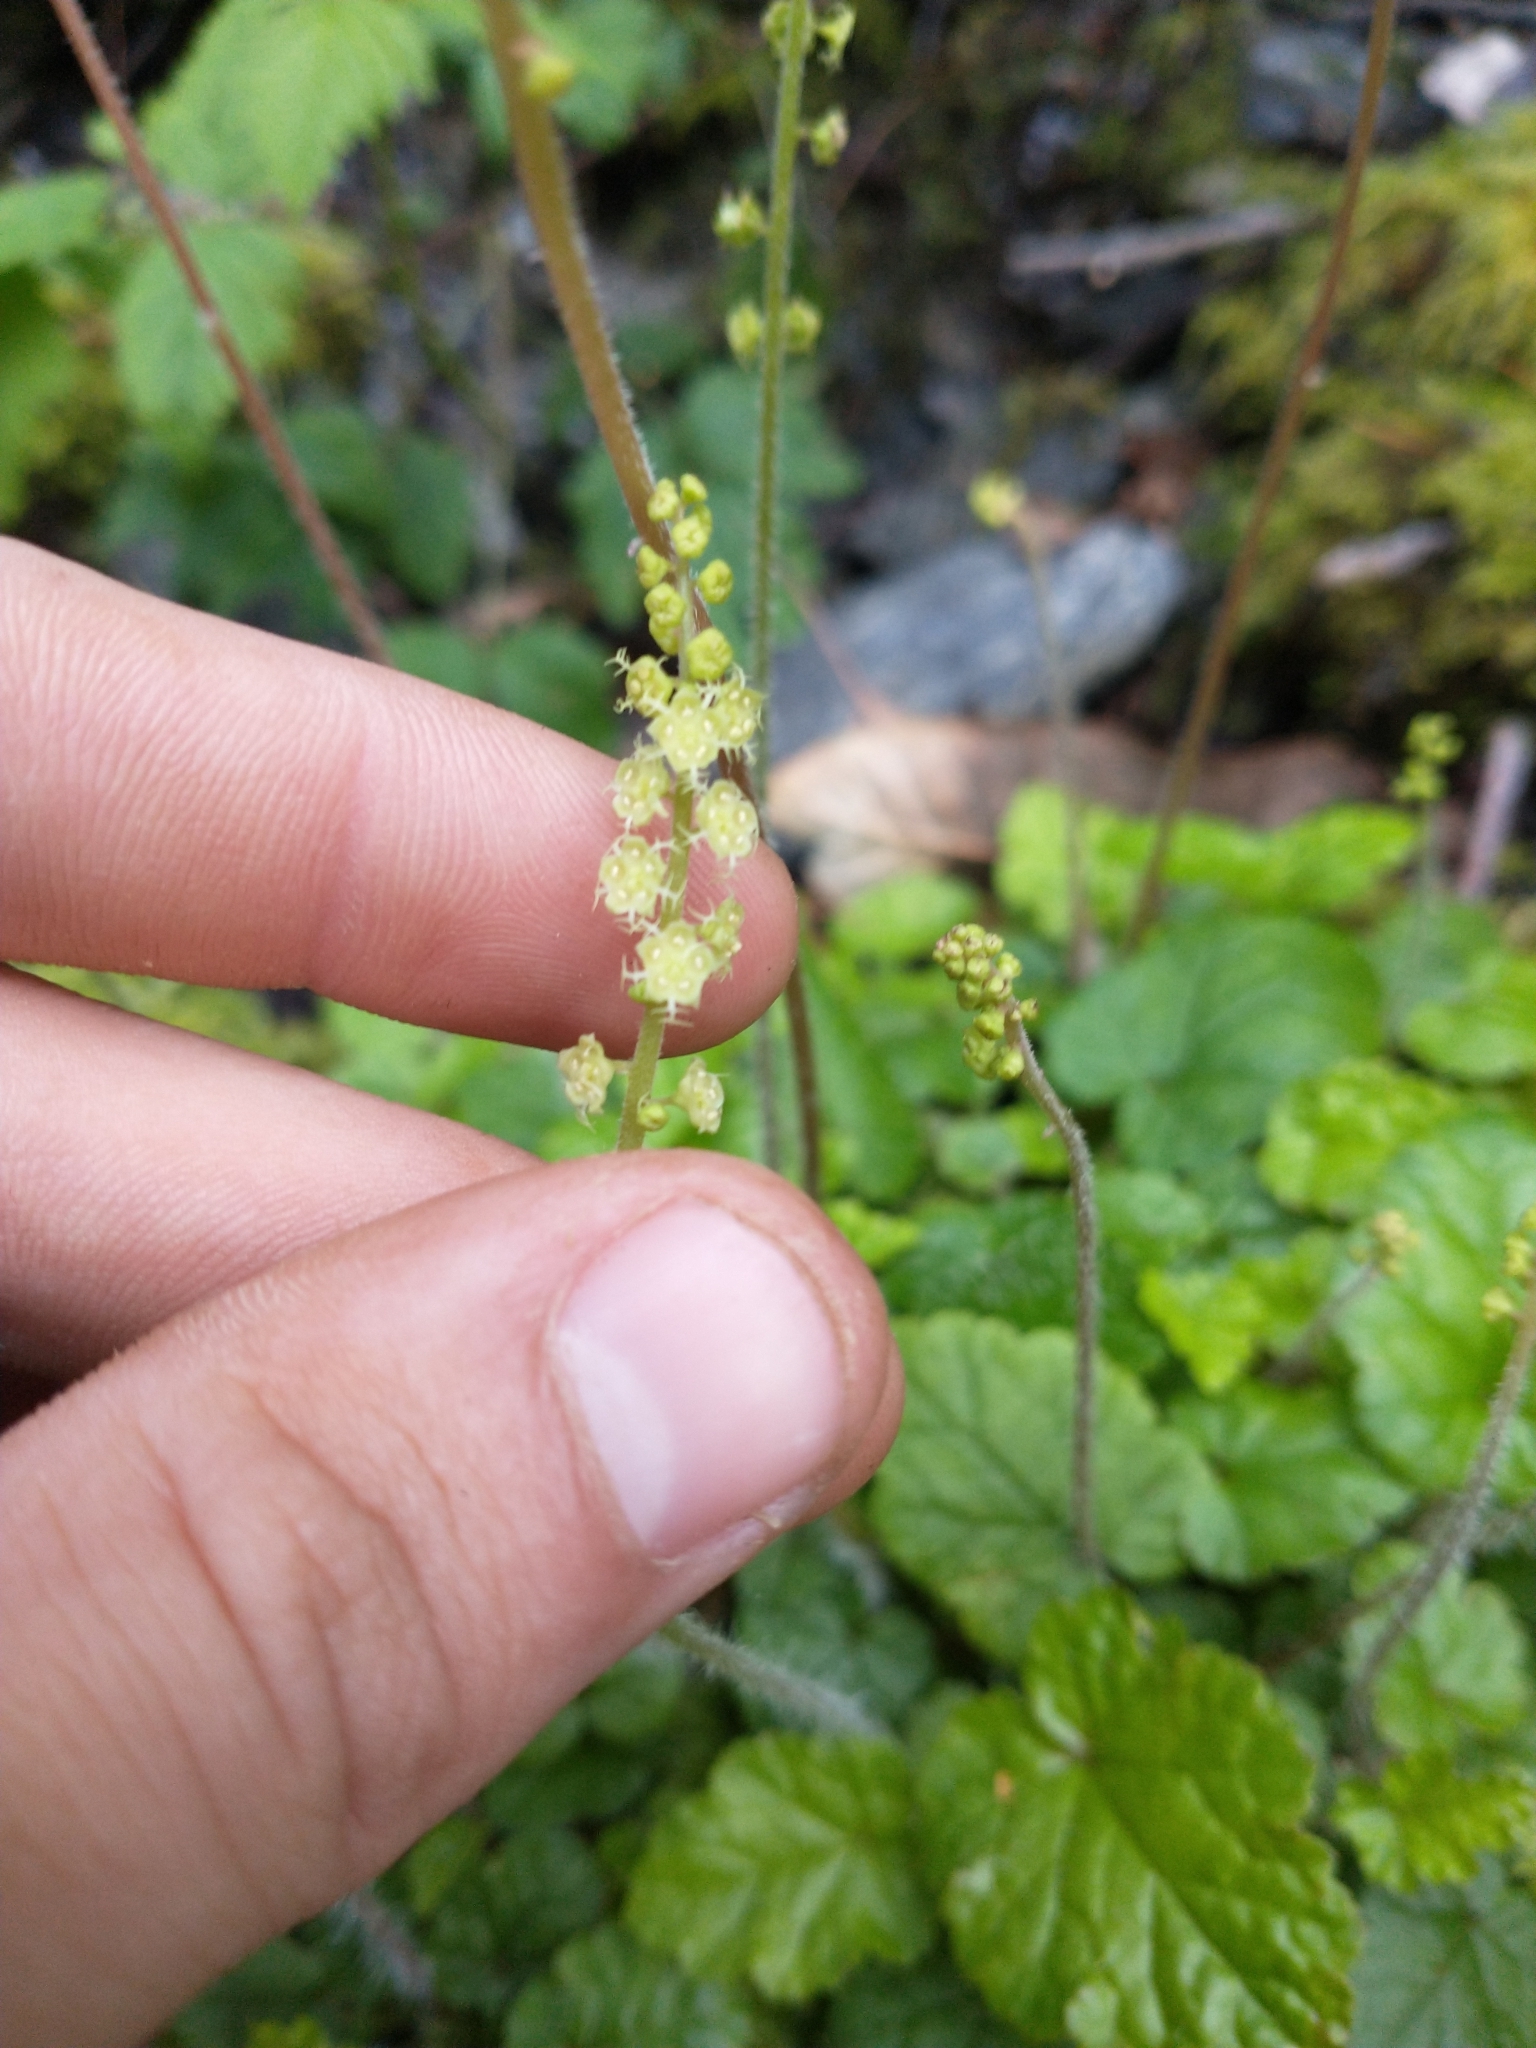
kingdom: Plantae
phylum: Tracheophyta
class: Magnoliopsida
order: Saxifragales
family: Saxifragaceae
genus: Brewerimitella
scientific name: Brewerimitella ovalis
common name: Coastal bishop's-cap
